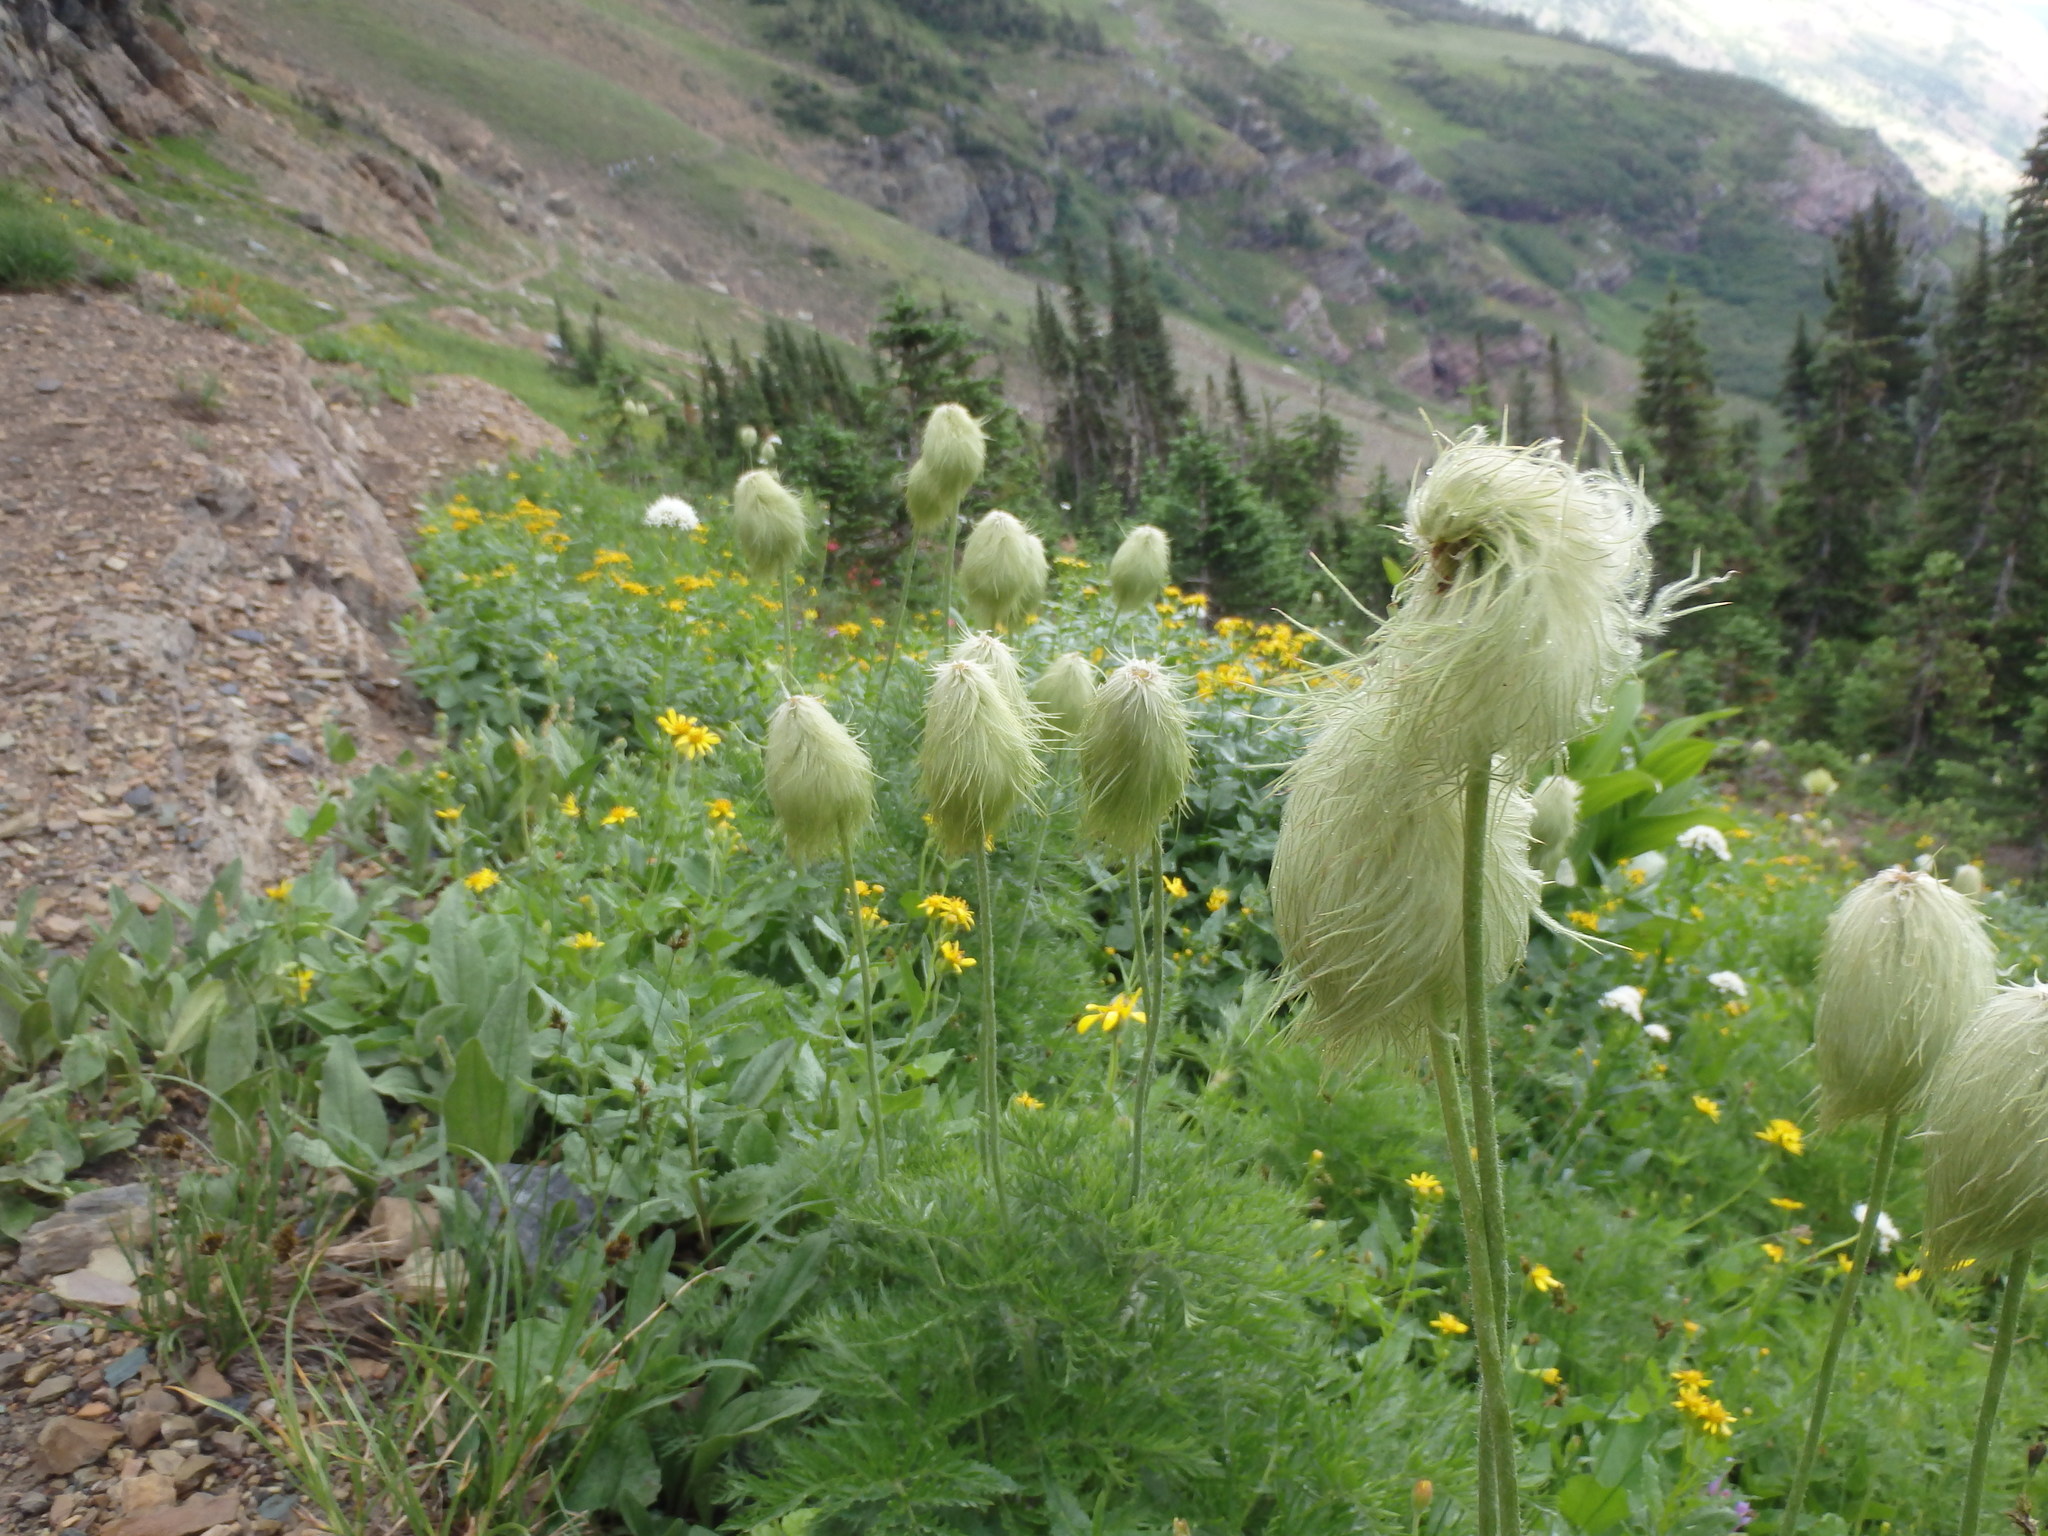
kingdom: Plantae
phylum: Tracheophyta
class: Magnoliopsida
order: Ranunculales
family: Ranunculaceae
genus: Pulsatilla
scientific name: Pulsatilla occidentalis
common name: Mountain pasqueflower
